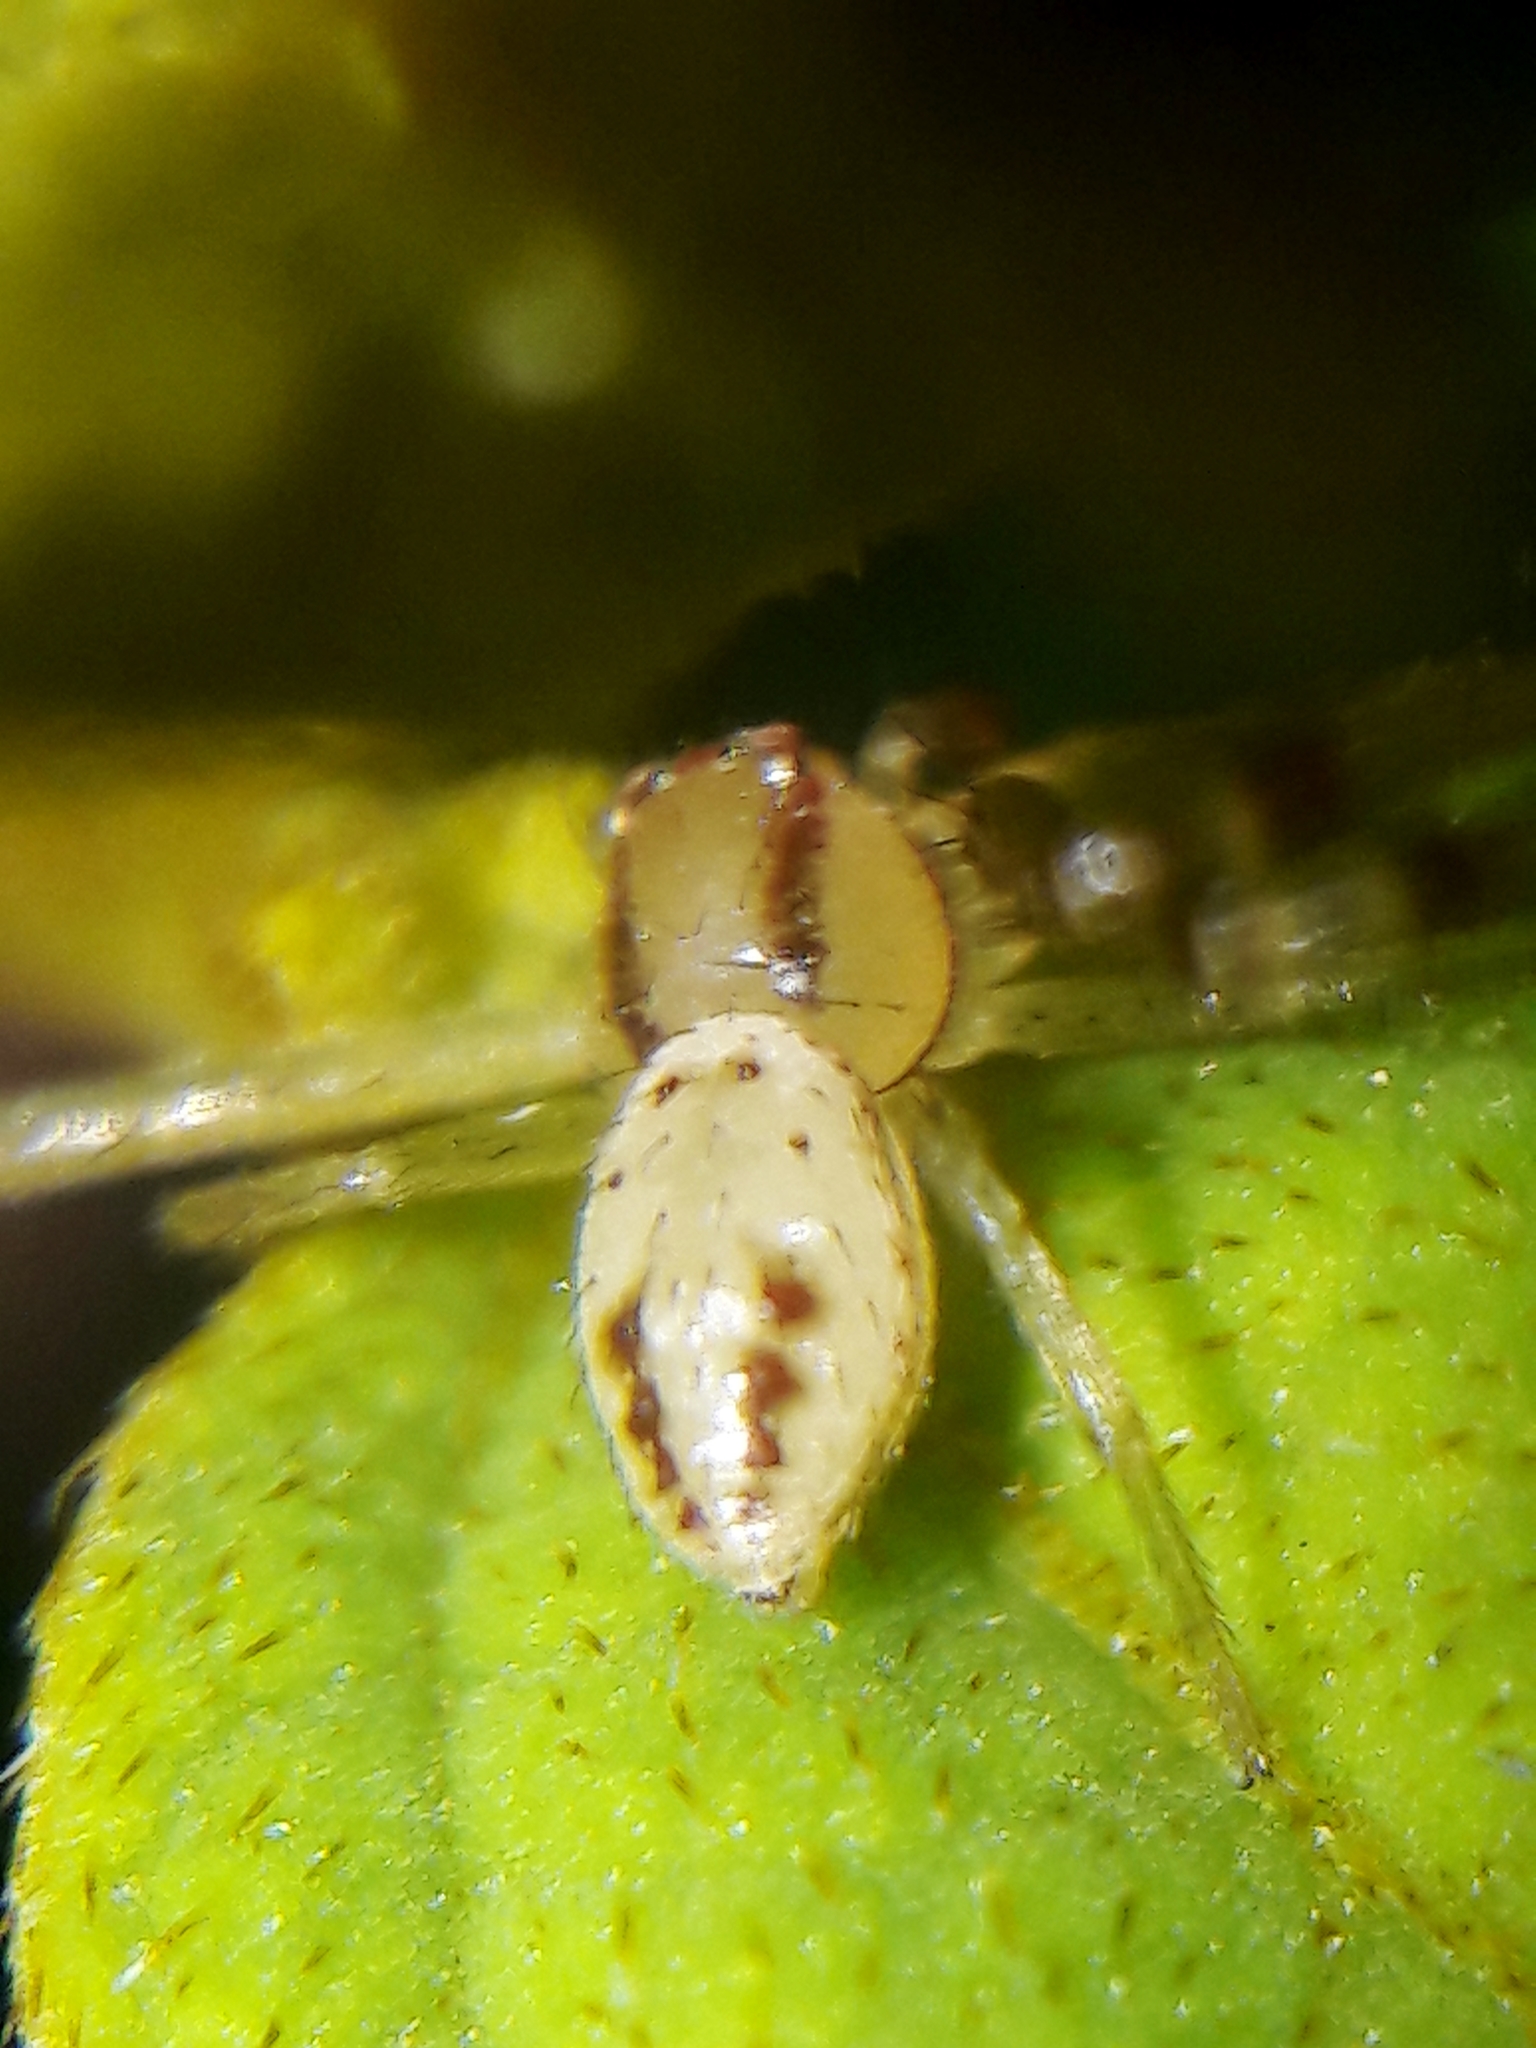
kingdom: Animalia
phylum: Arthropoda
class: Arachnida
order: Araneae
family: Thomisidae
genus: Misumenops
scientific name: Misumenops maculissparsus
